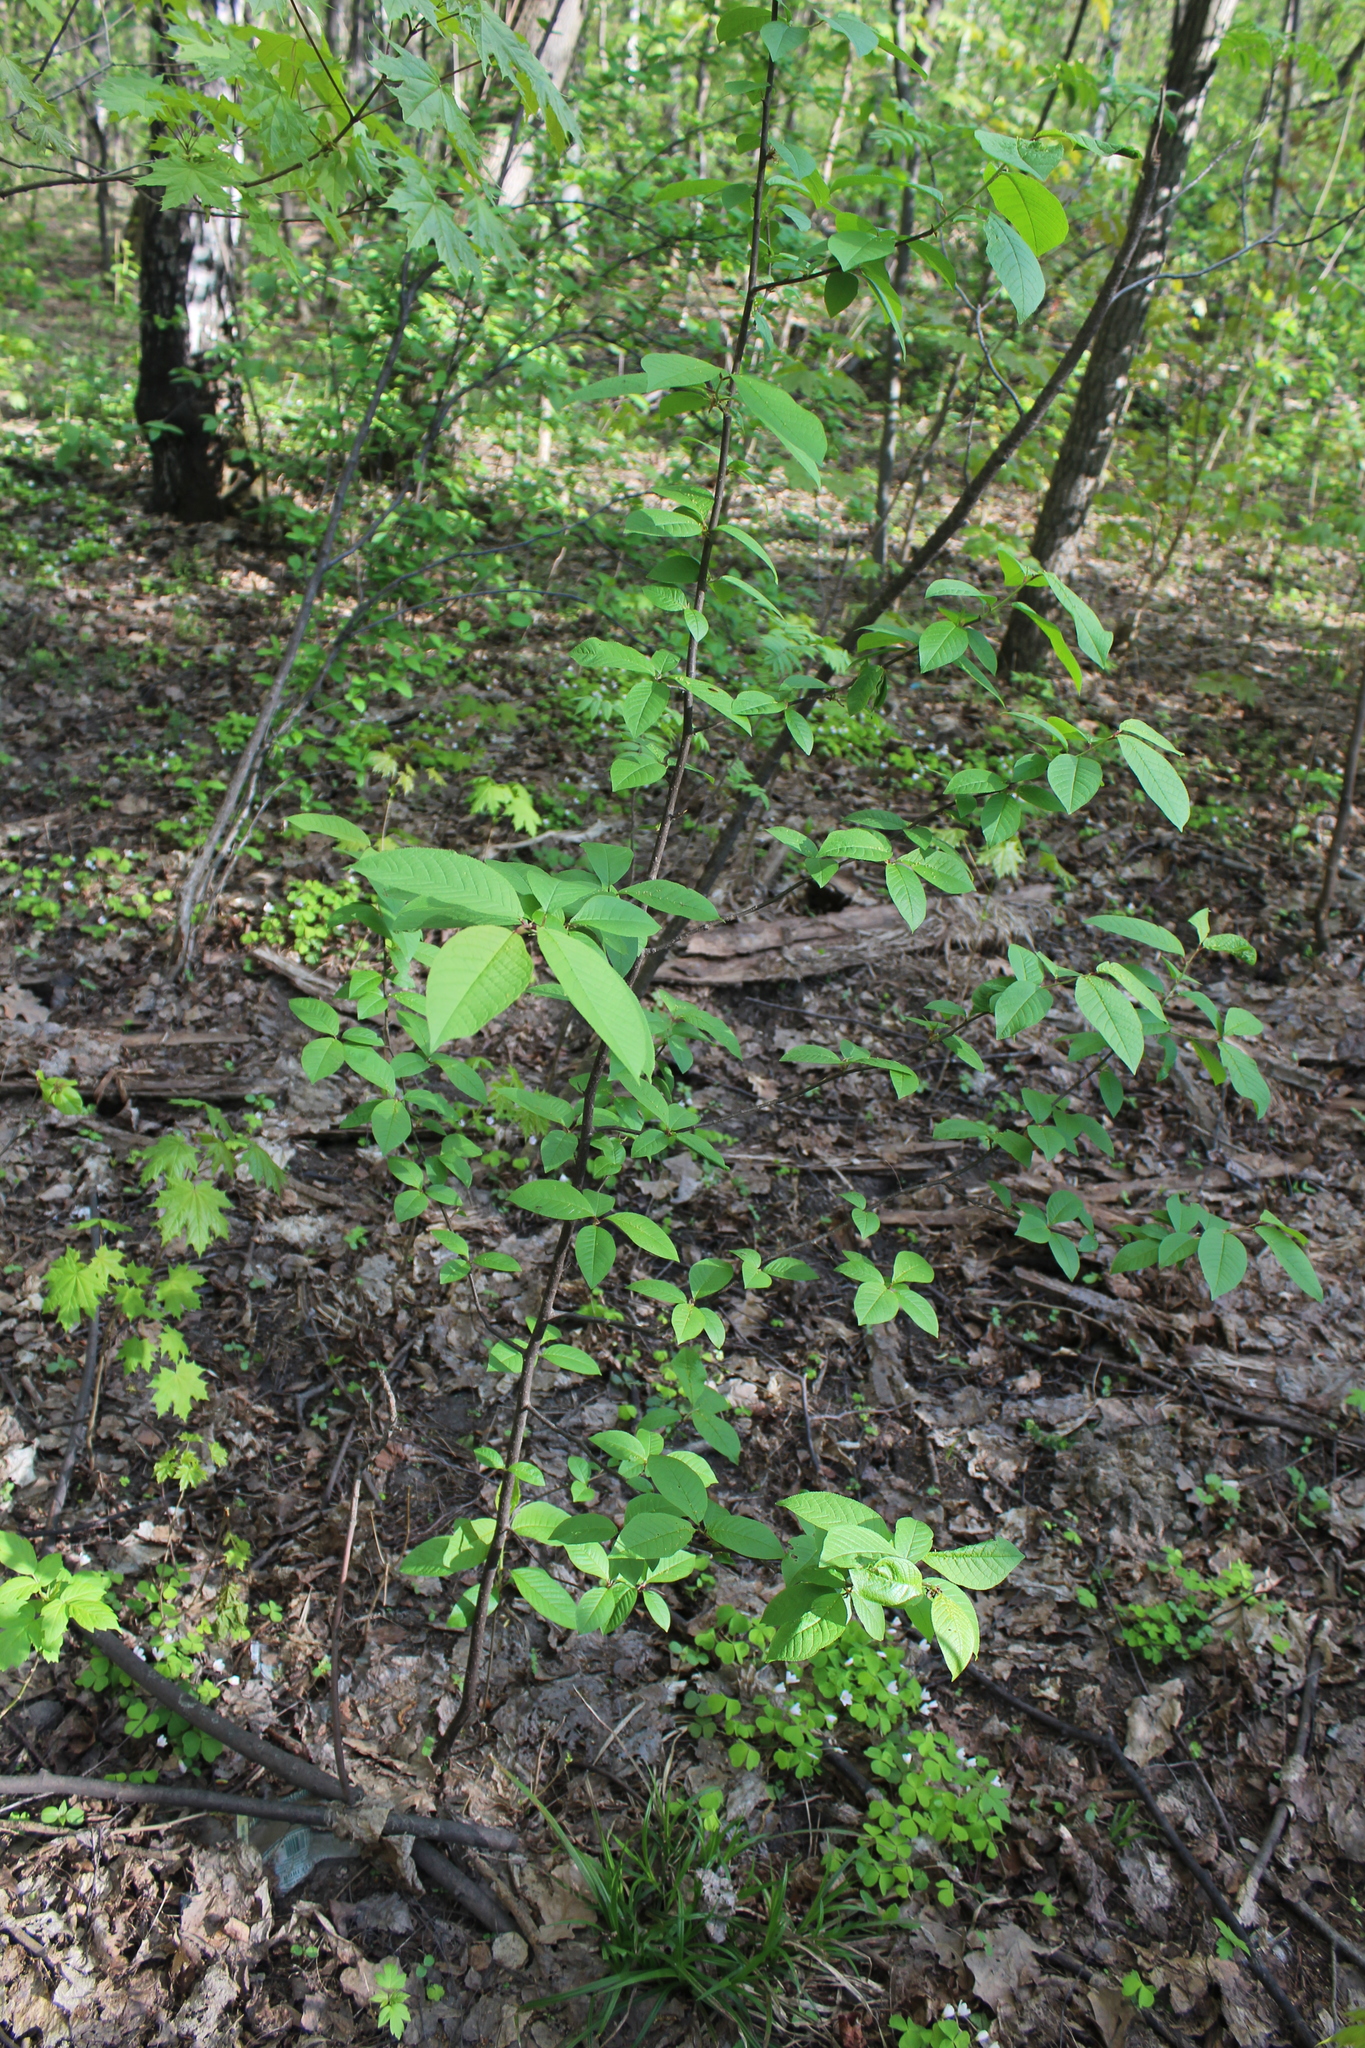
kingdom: Plantae
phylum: Tracheophyta
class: Magnoliopsida
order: Rosales
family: Rosaceae
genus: Prunus
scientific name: Prunus padus
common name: Bird cherry
